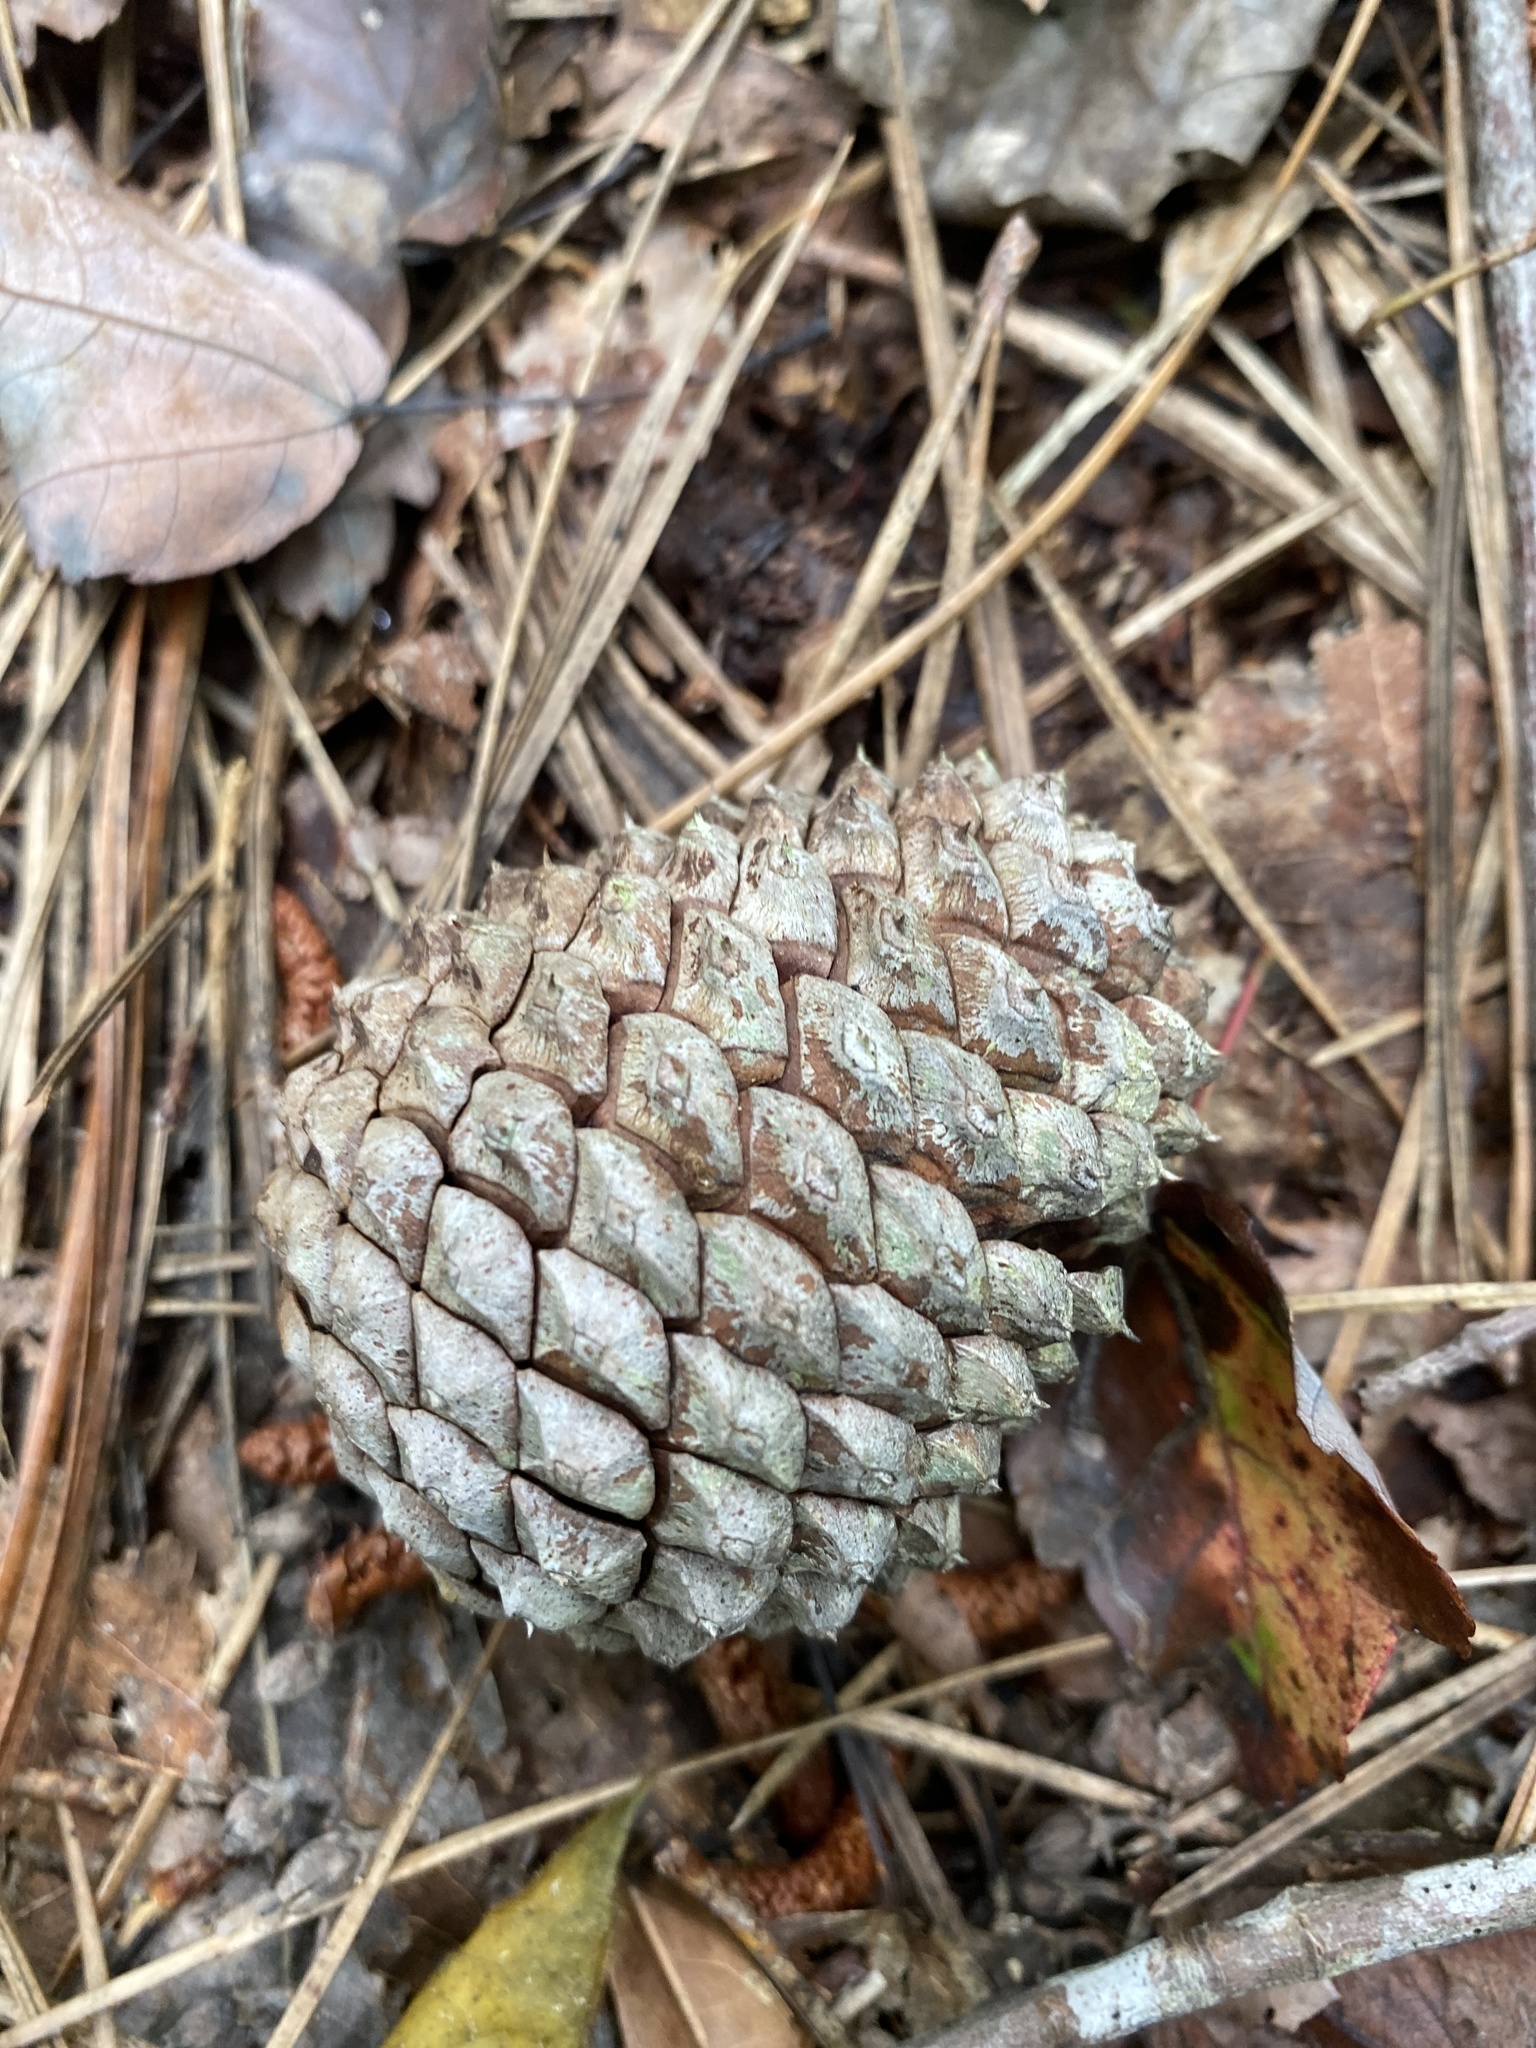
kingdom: Plantae
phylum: Tracheophyta
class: Pinopsida
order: Pinales
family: Pinaceae
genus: Pinus
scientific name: Pinus serotina
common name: Marsh pine
